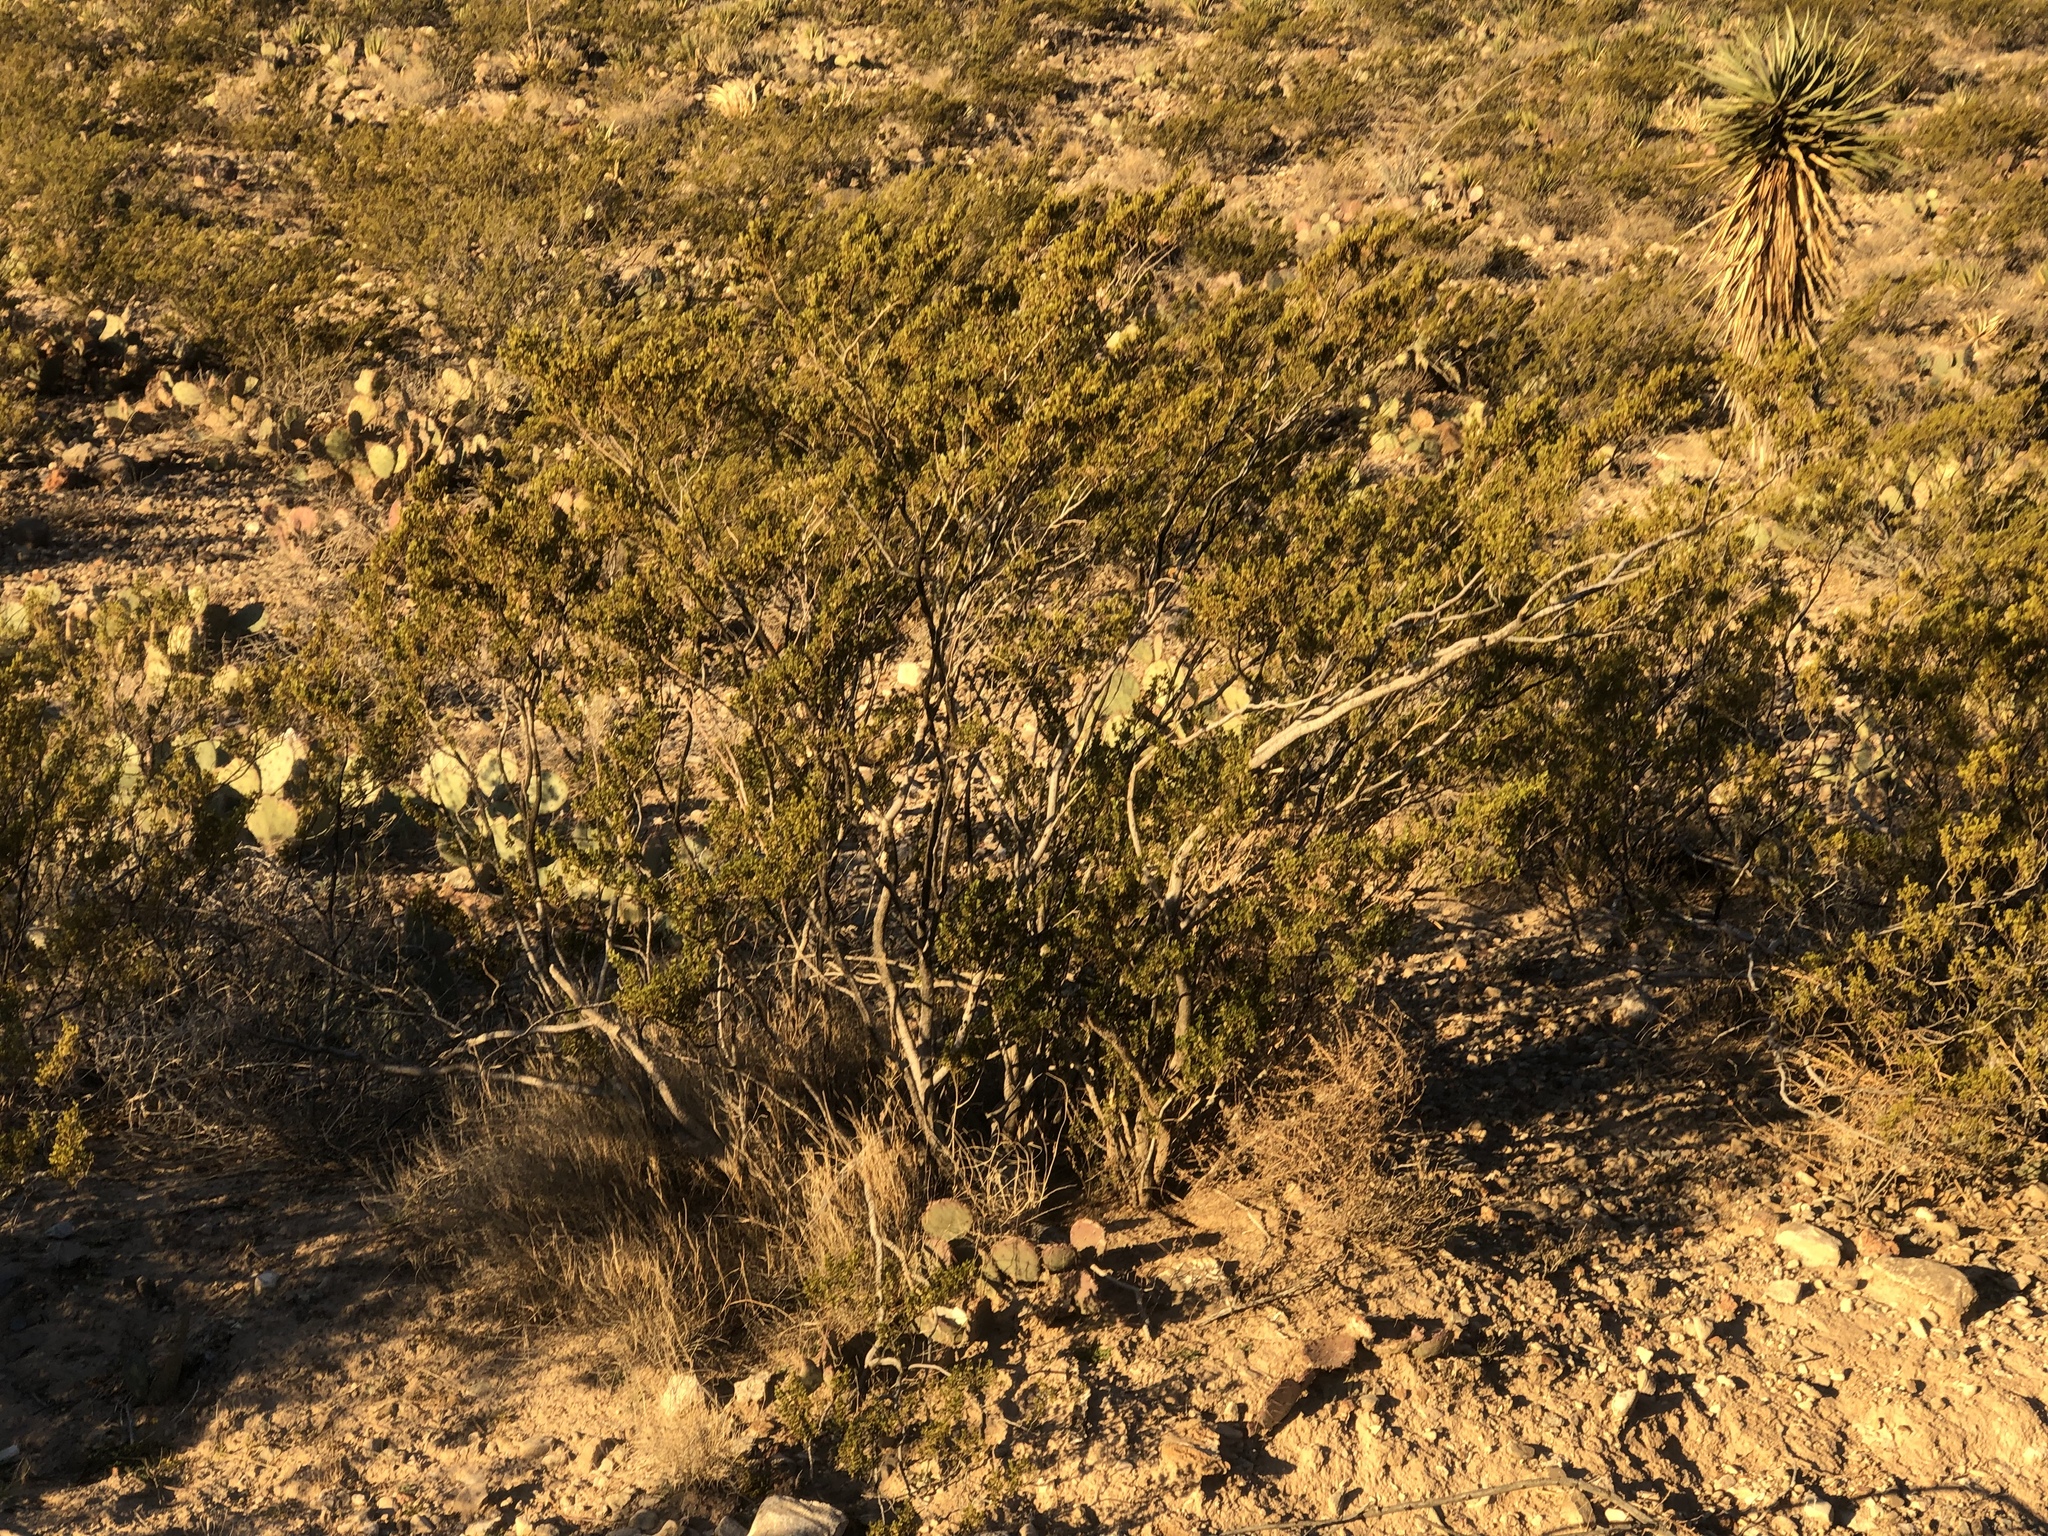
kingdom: Plantae
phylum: Tracheophyta
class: Magnoliopsida
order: Zygophyllales
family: Zygophyllaceae
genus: Larrea
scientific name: Larrea tridentata
